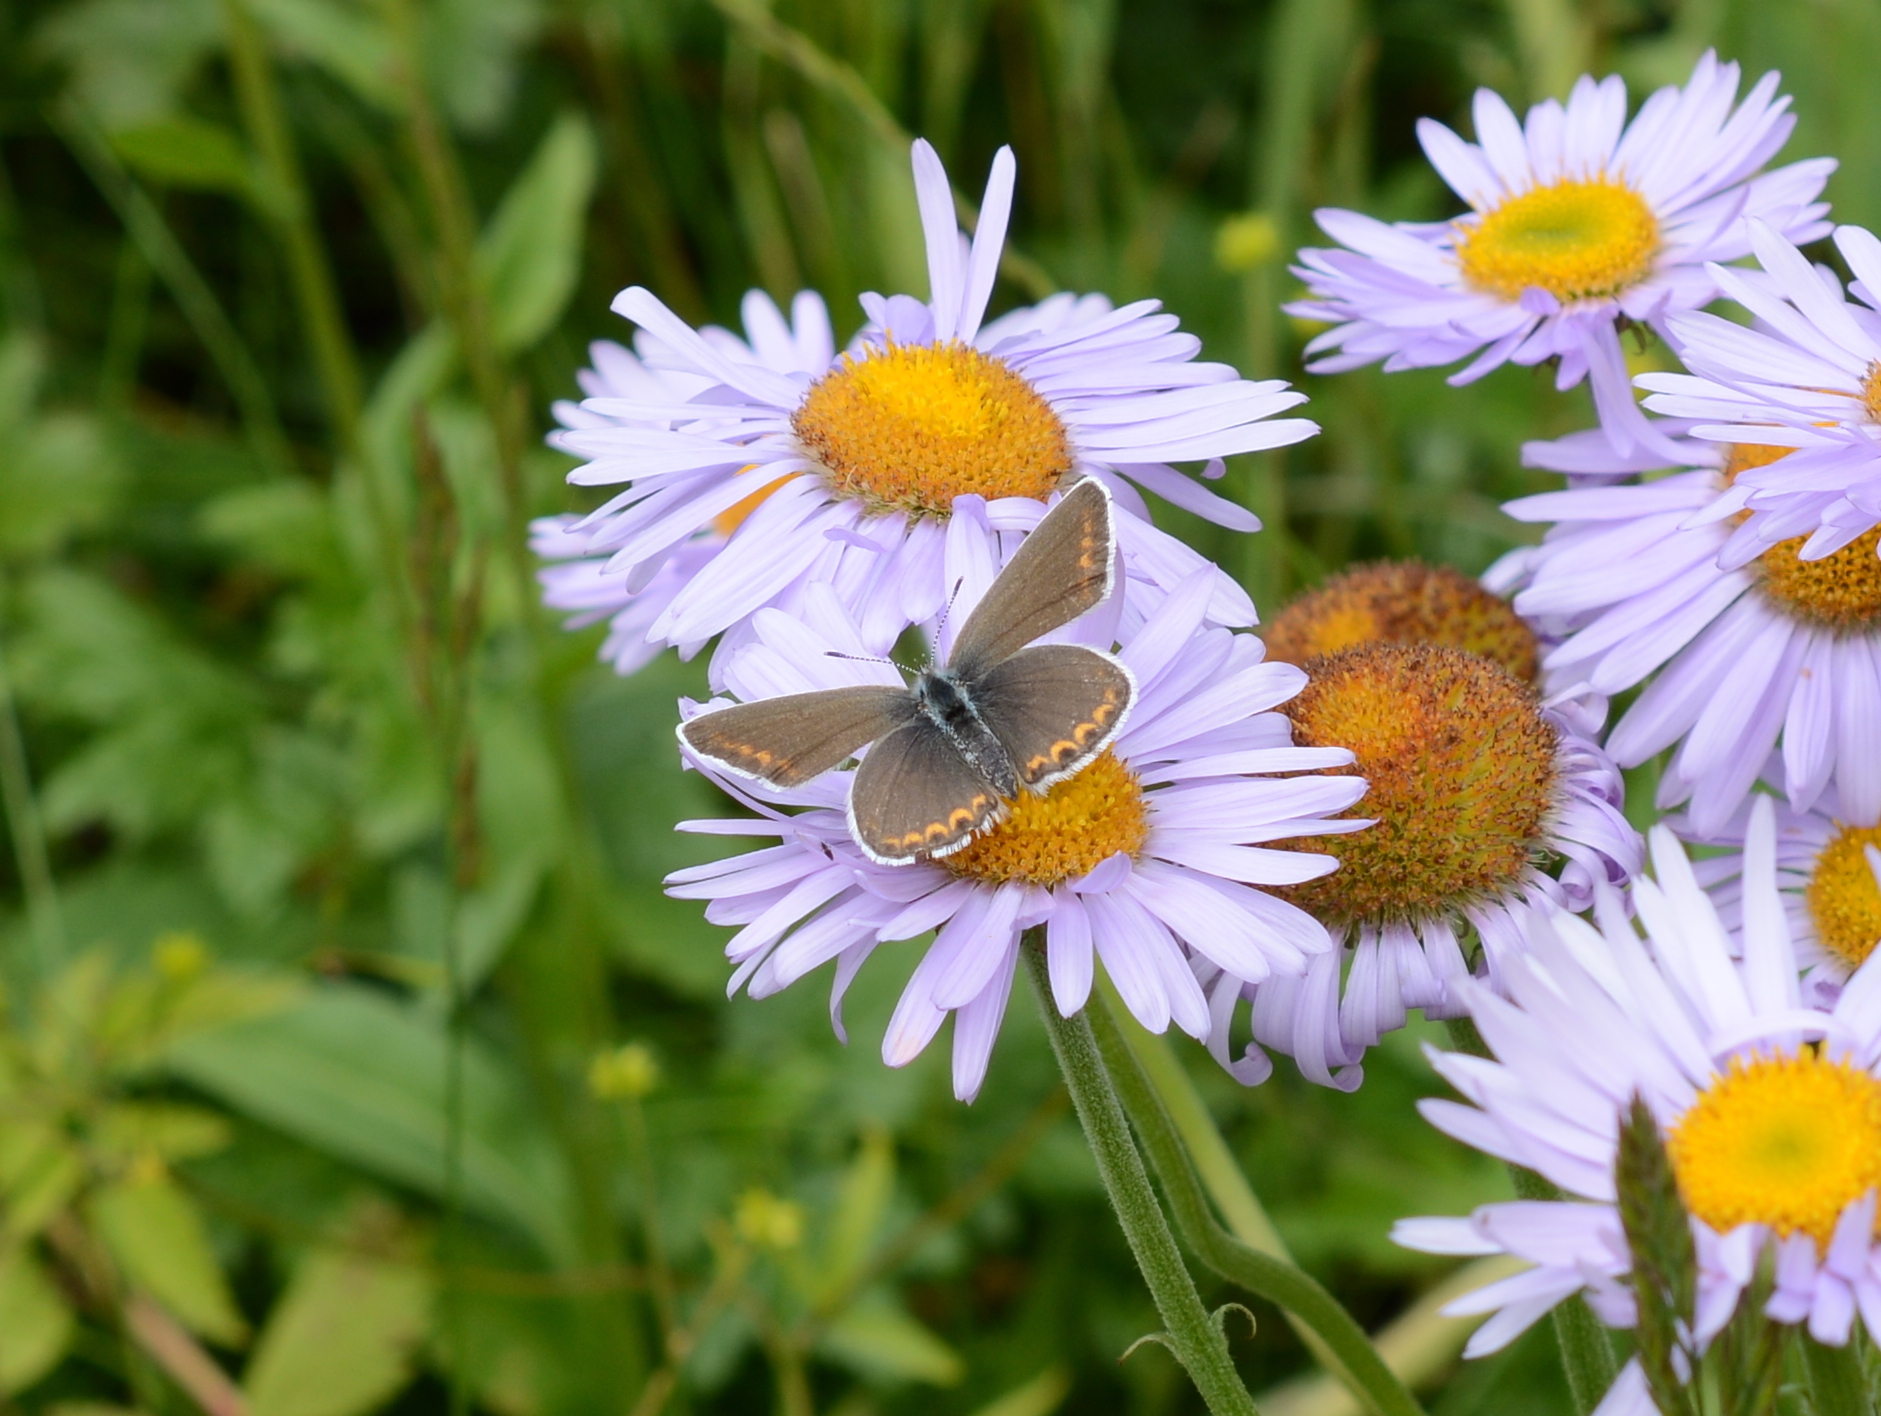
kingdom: Animalia
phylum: Arthropoda
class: Insecta
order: Lepidoptera
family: Lycaenidae
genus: Lycaeides
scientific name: Lycaeides melissa
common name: Melissa blue
